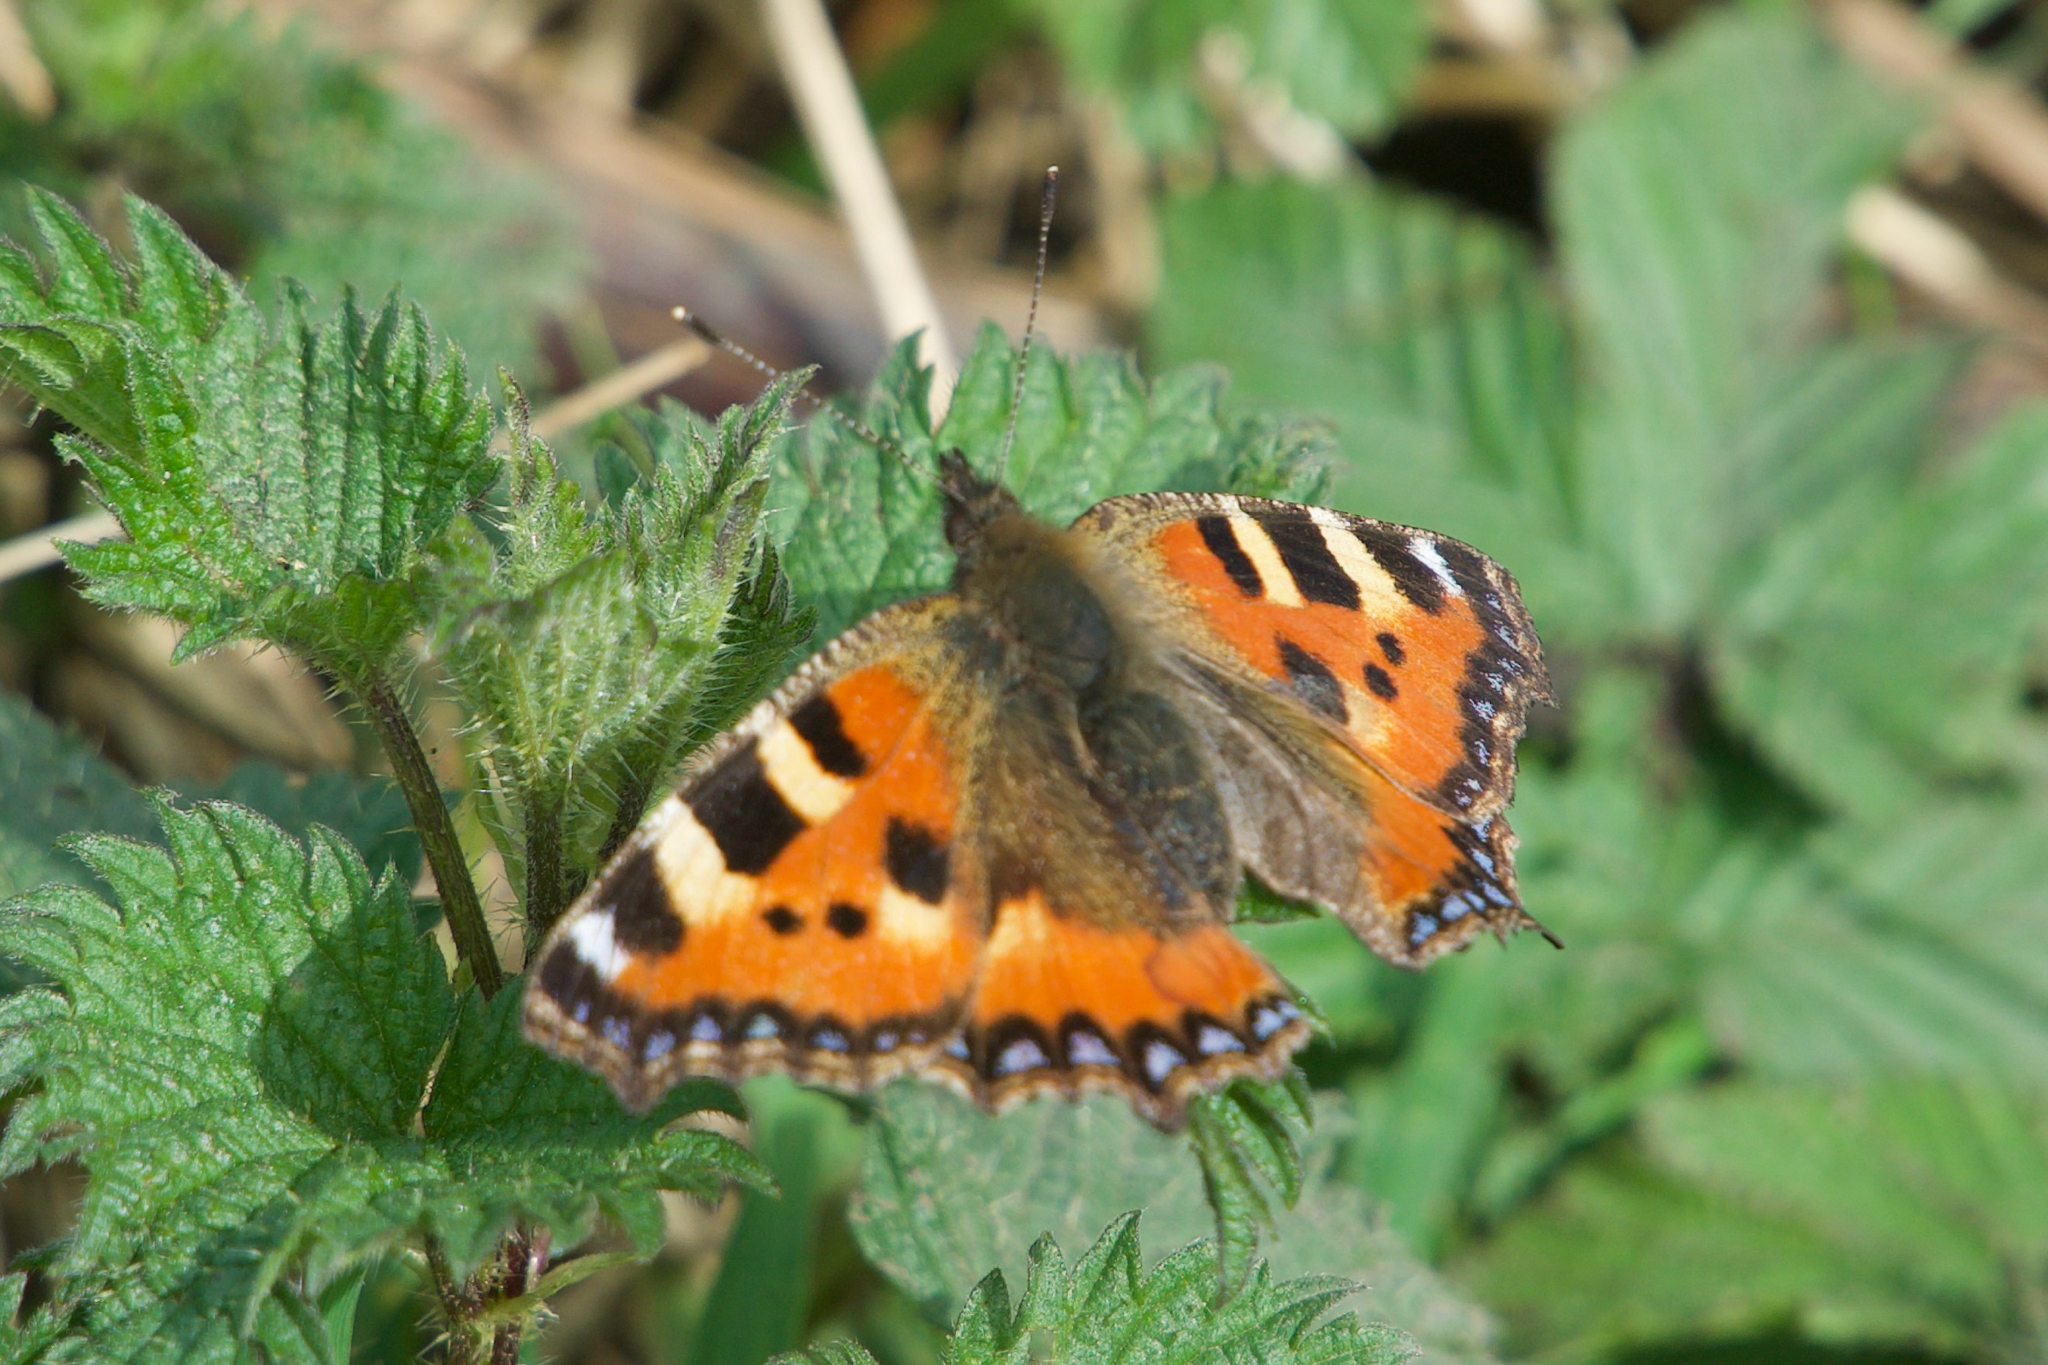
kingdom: Animalia
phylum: Arthropoda
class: Insecta
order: Lepidoptera
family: Nymphalidae
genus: Aglais
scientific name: Aglais urticae
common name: Small tortoiseshell
